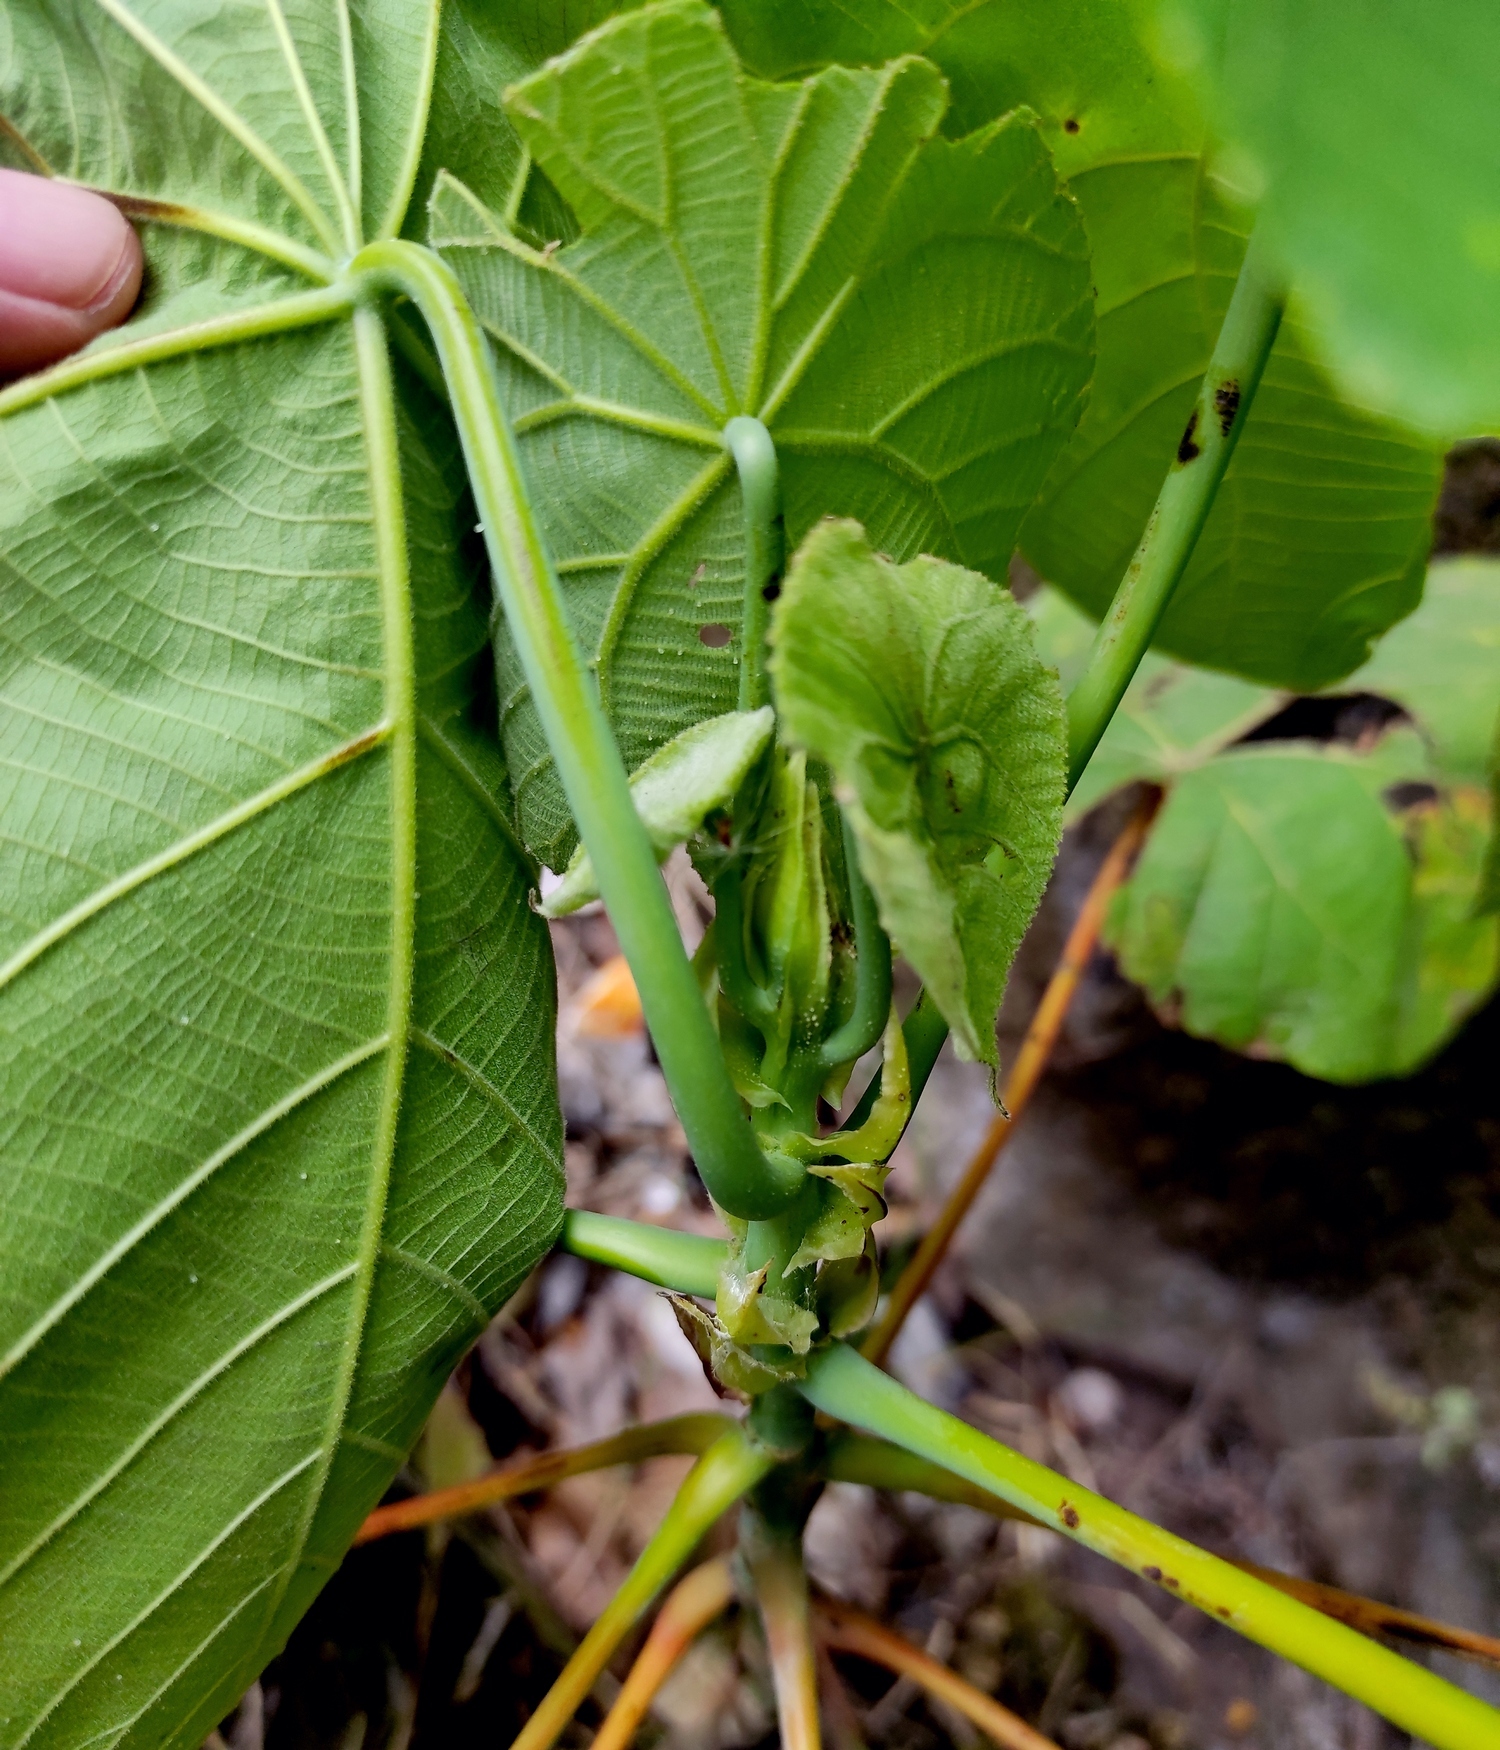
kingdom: Plantae
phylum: Tracheophyta
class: Magnoliopsida
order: Malpighiales
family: Euphorbiaceae
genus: Macaranga
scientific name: Macaranga tanarius
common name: Parasol leaf tree
